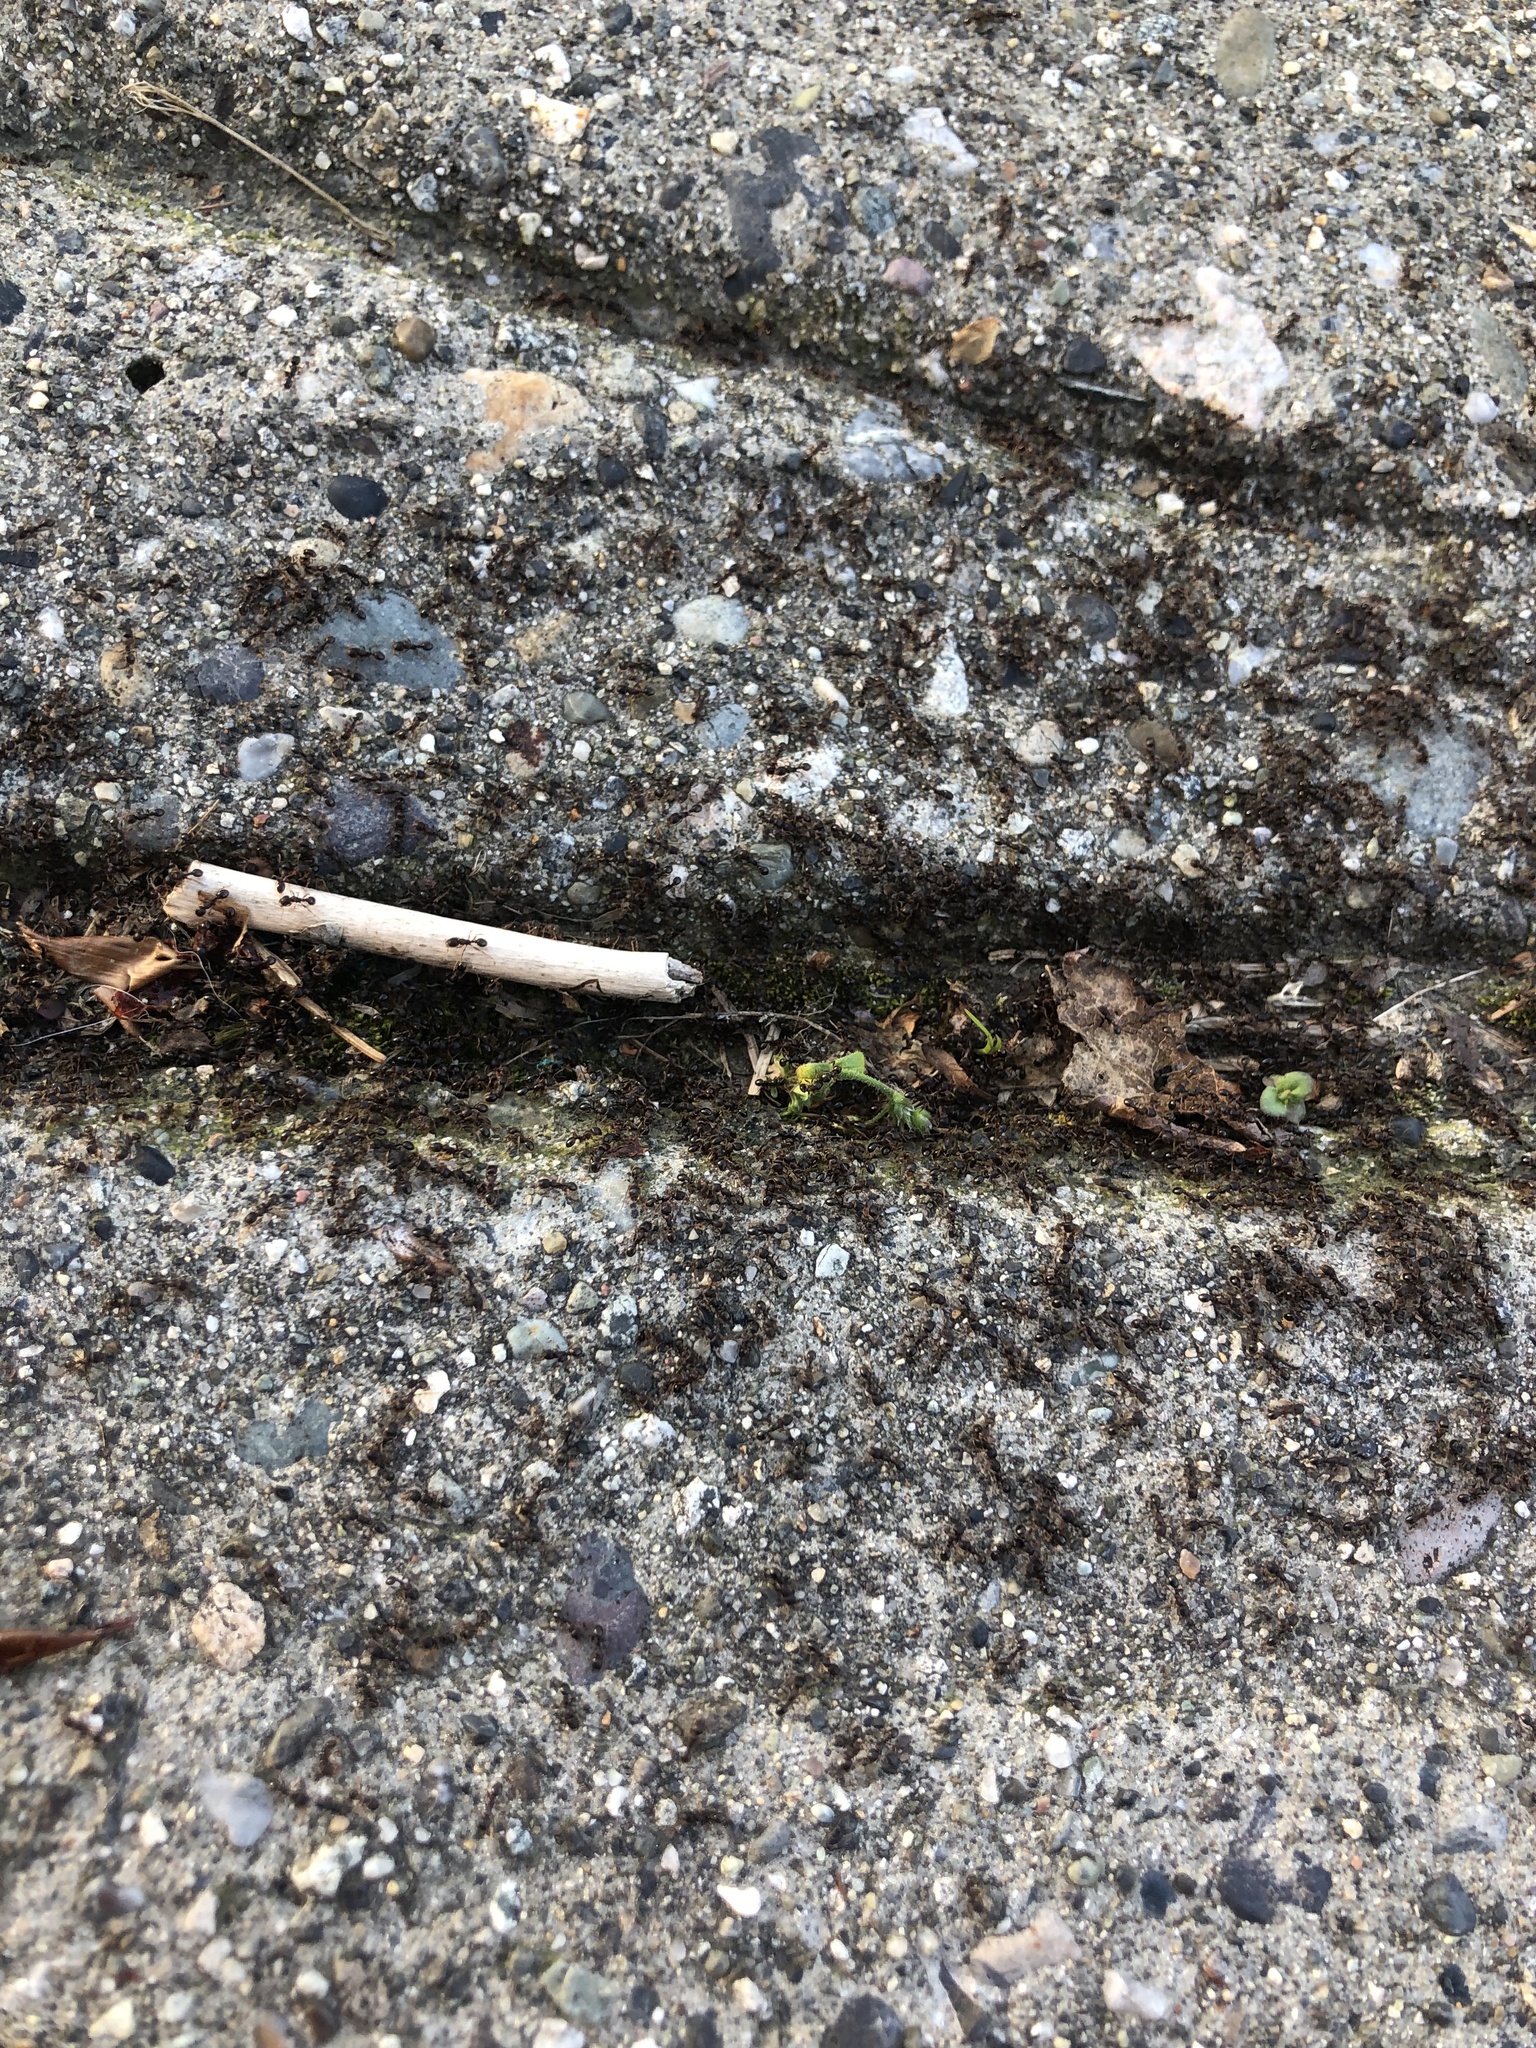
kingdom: Animalia
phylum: Arthropoda
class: Insecta
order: Hymenoptera
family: Formicidae
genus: Tetramorium
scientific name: Tetramorium immigrans
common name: Pavement ant
